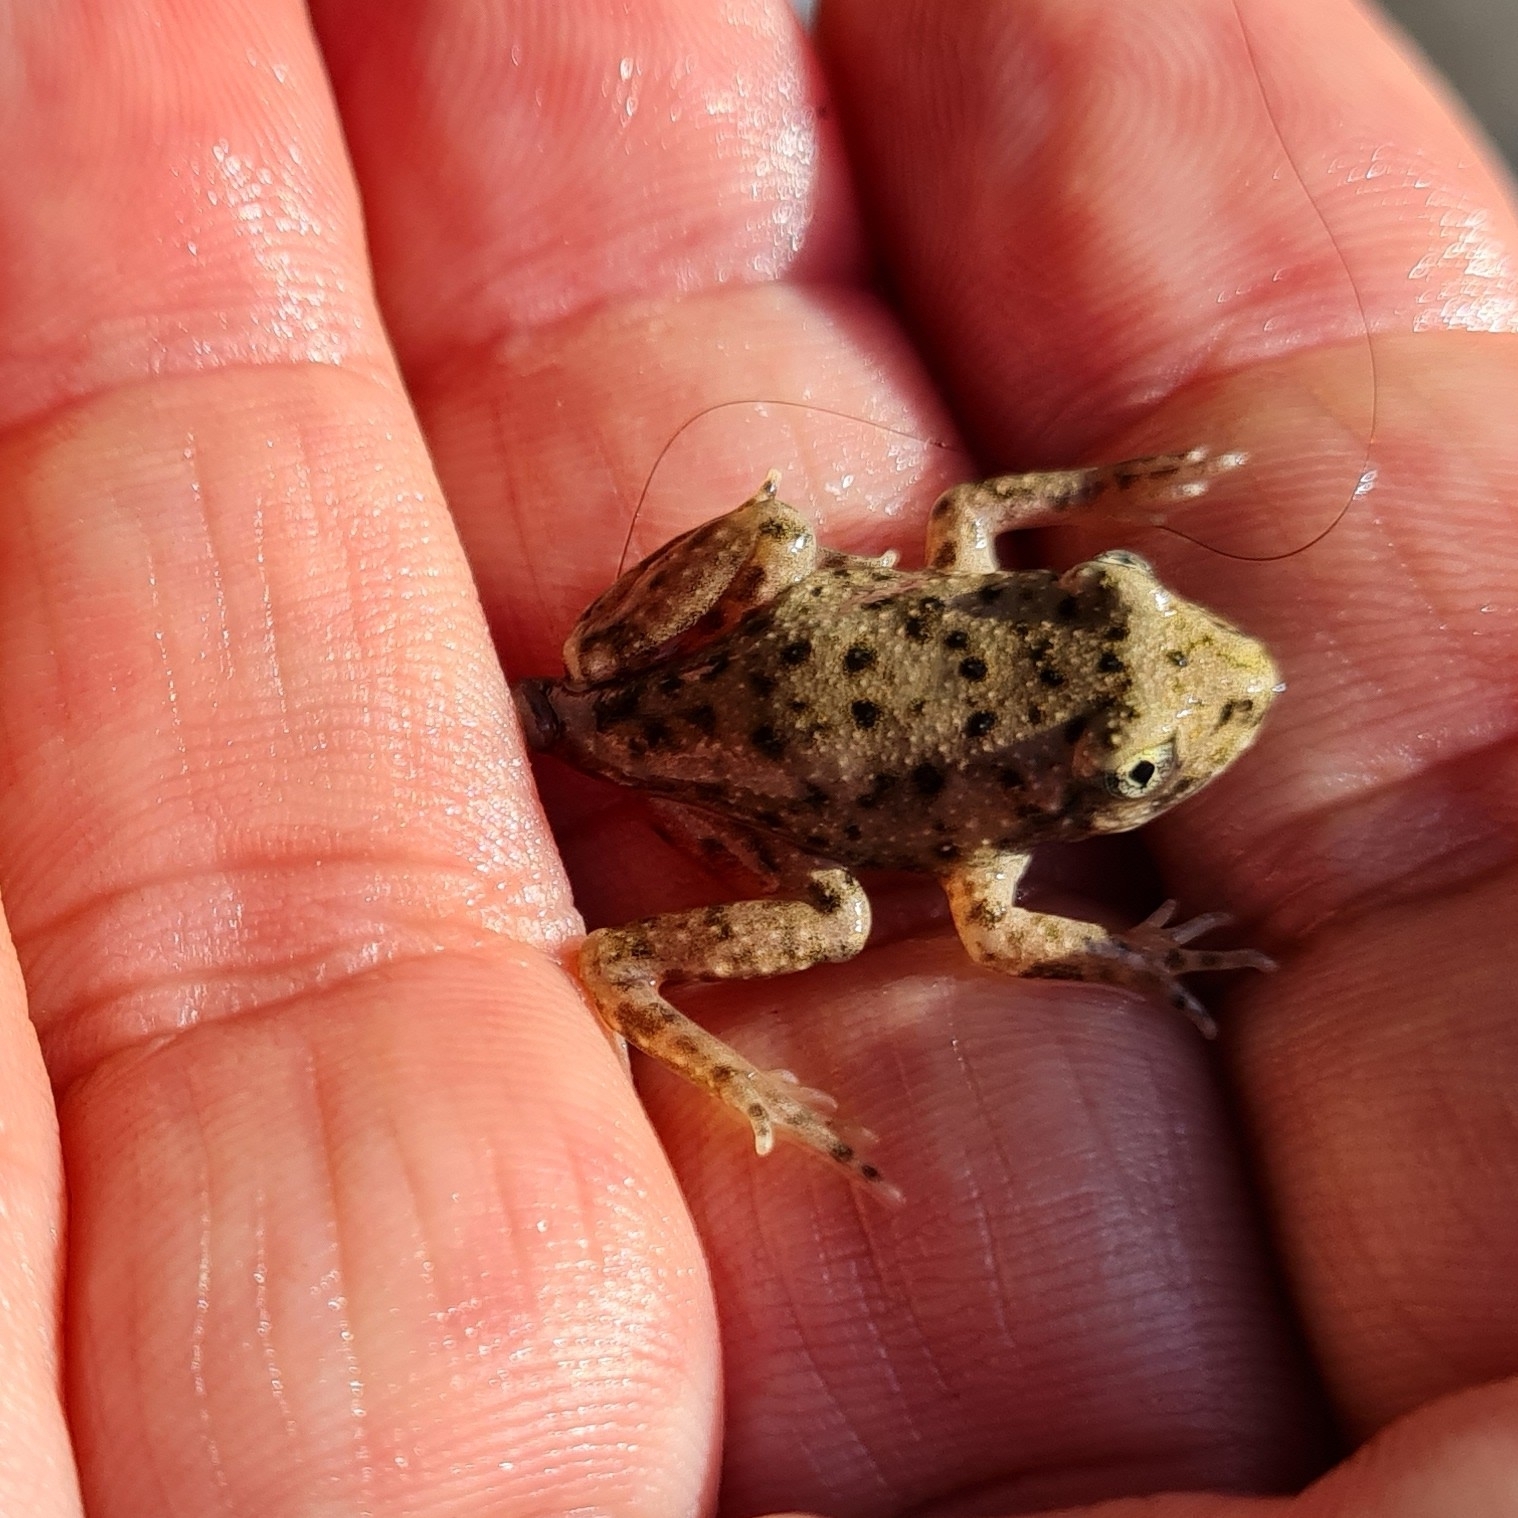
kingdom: Animalia
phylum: Chordata
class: Amphibia
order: Anura
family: Alytidae
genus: Alytes
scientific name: Alytes obstetricans
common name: Midwife toad
